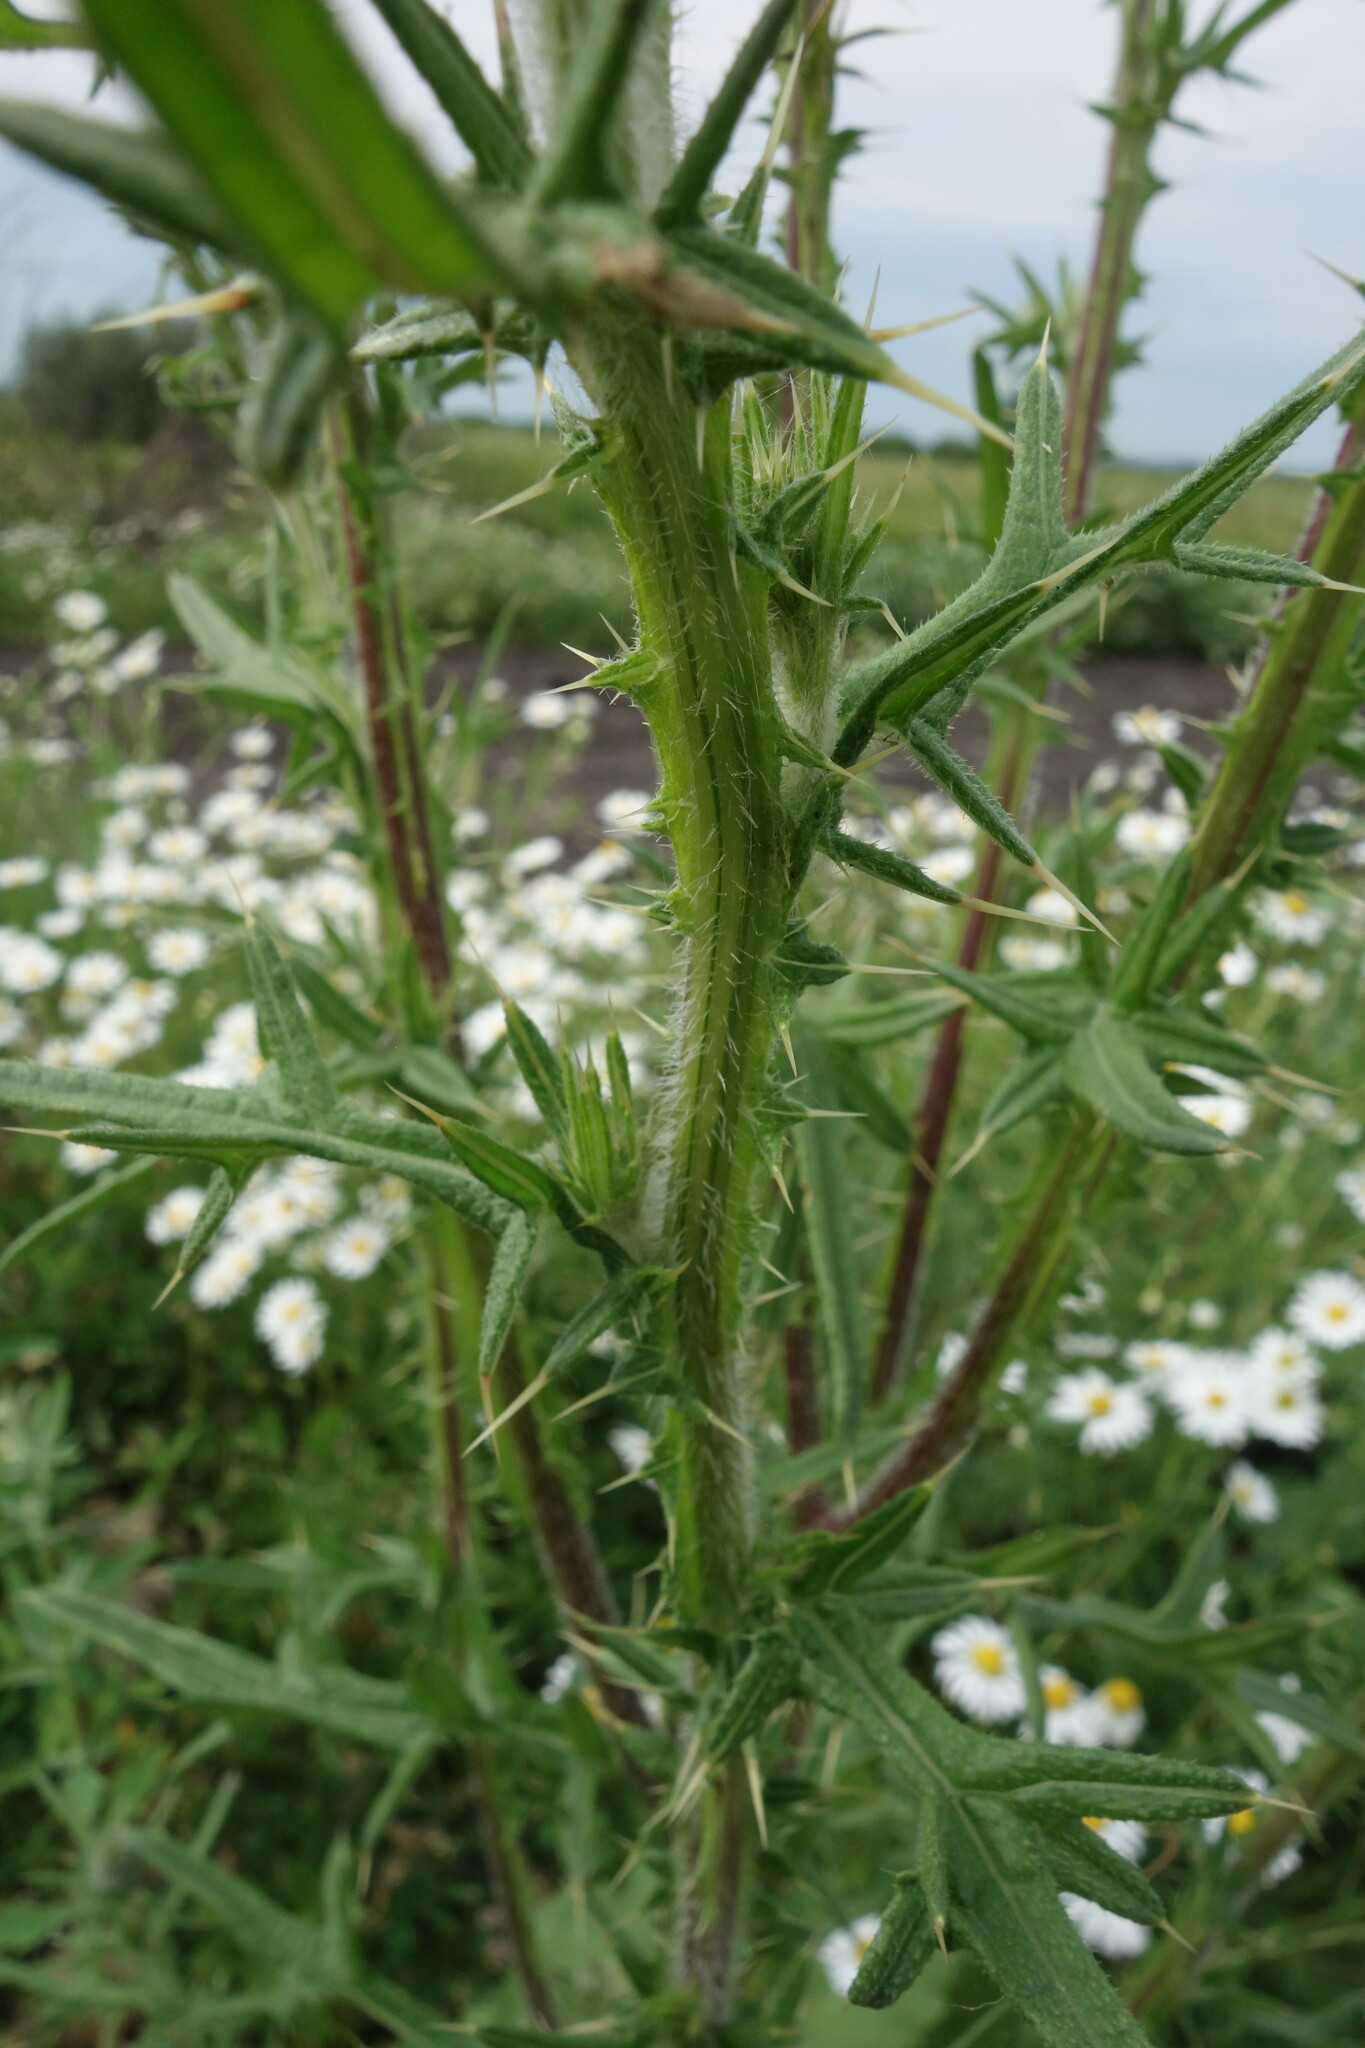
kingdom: Plantae
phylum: Tracheophyta
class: Magnoliopsida
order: Asterales
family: Asteraceae
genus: Cirsium
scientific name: Cirsium vulgare
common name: Bull thistle
